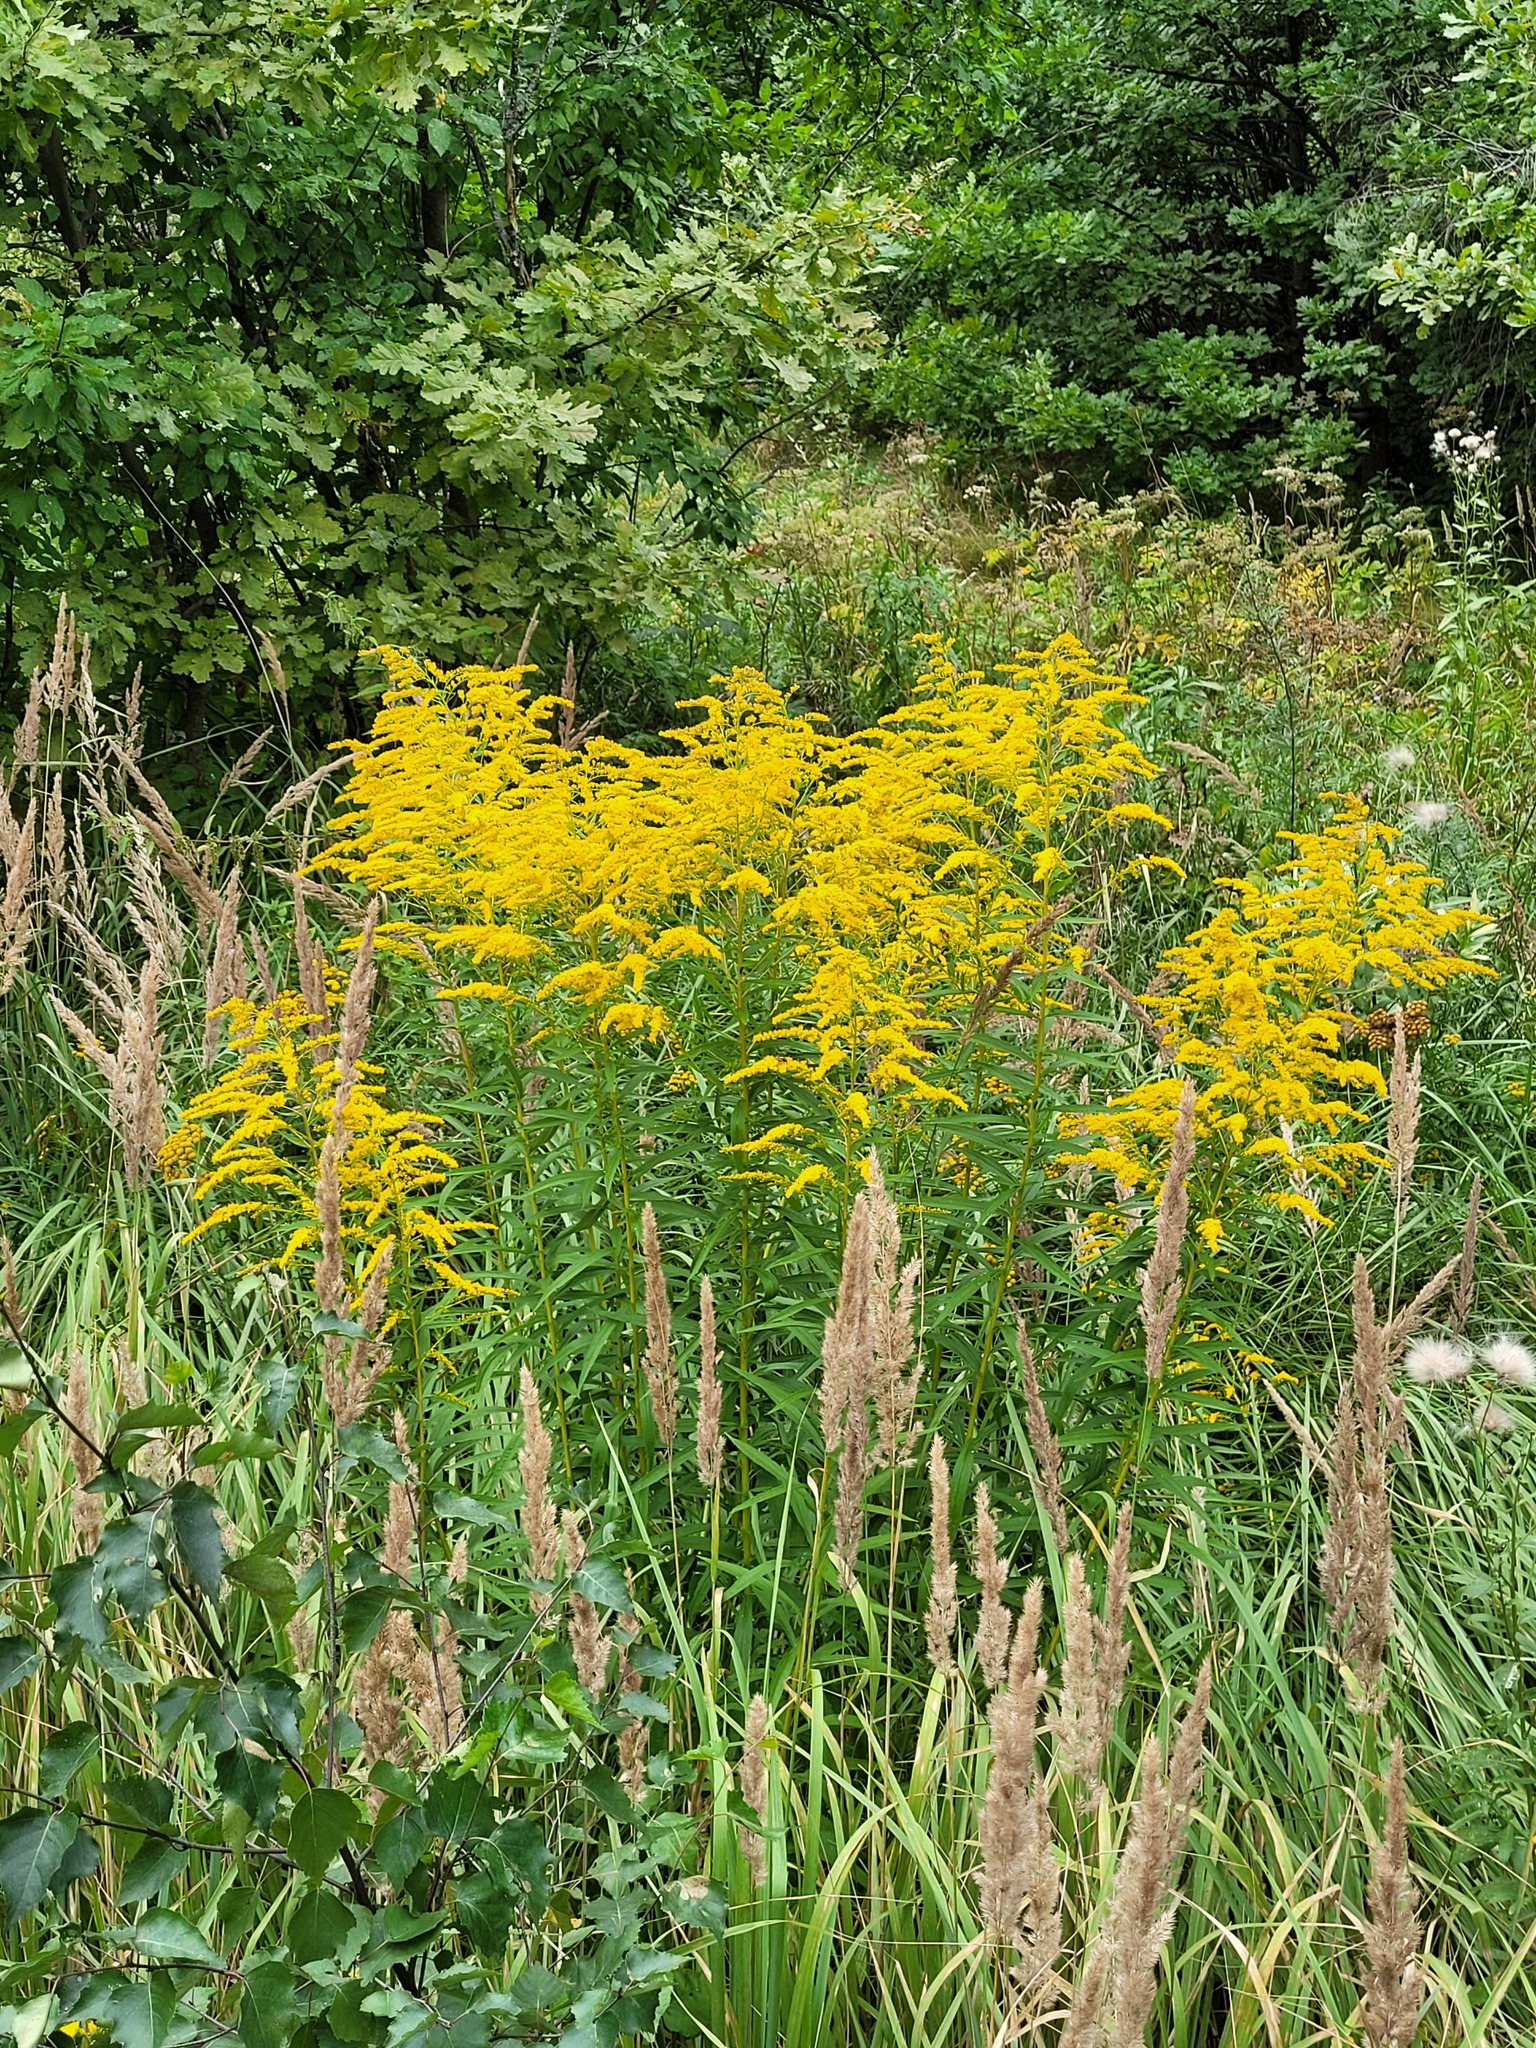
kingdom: Plantae
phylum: Tracheophyta
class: Magnoliopsida
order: Asterales
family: Asteraceae
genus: Solidago
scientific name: Solidago canadensis
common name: Canada goldenrod
